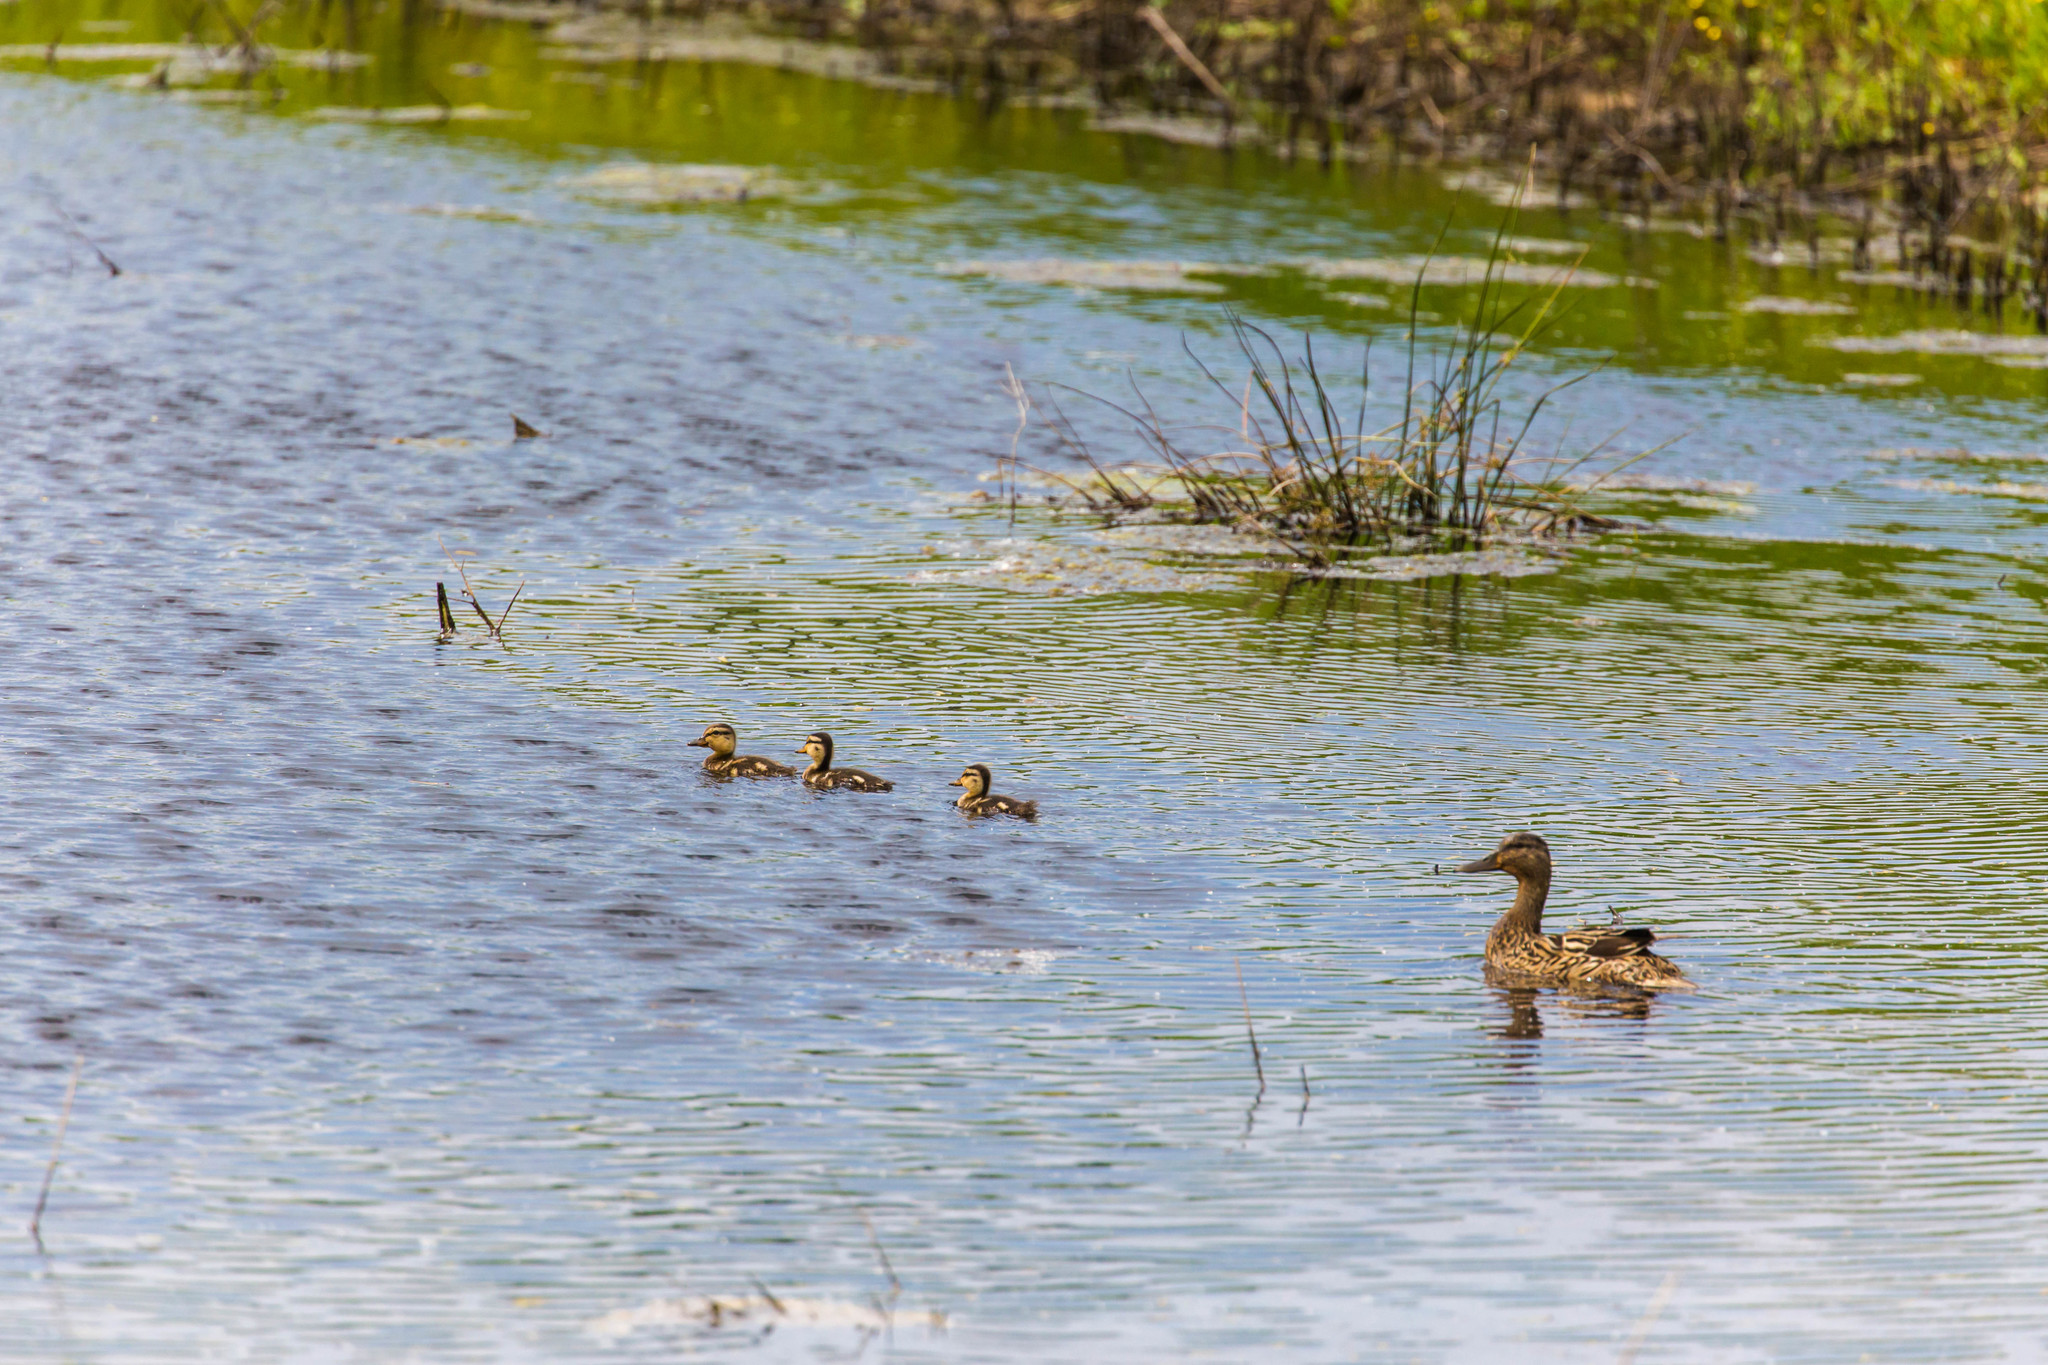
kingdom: Animalia
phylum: Chordata
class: Aves
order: Anseriformes
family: Anatidae
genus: Anas
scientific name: Anas platyrhynchos
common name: Mallard
